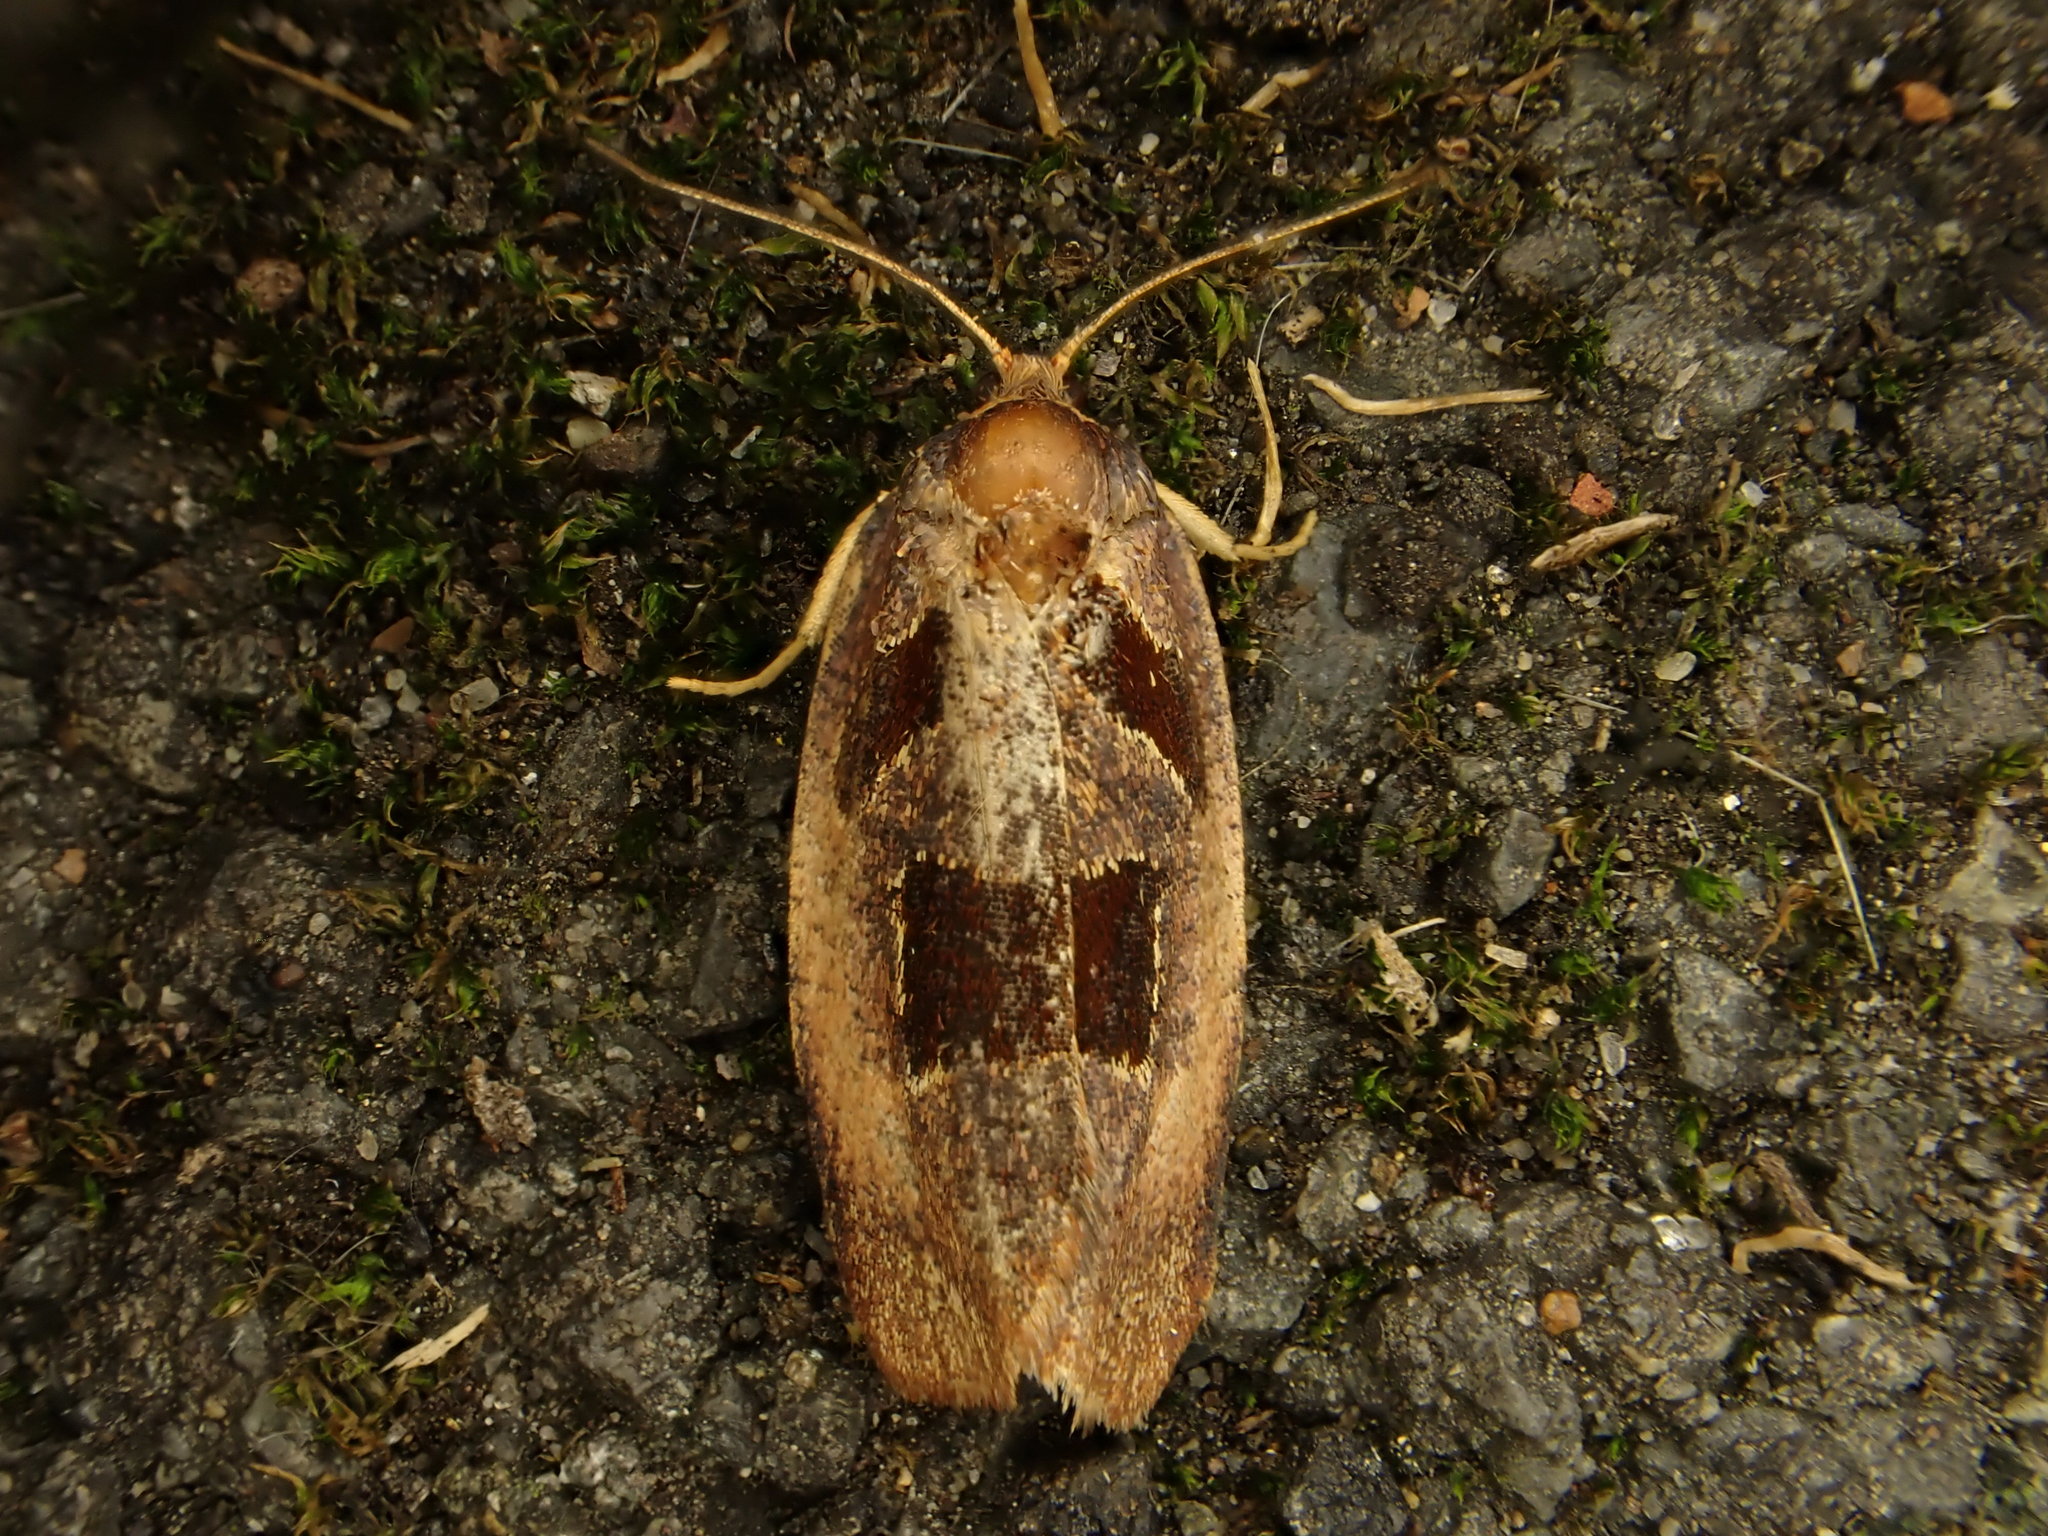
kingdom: Animalia
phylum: Arthropoda
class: Insecta
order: Lepidoptera
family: Tortricidae
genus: Ochetarcha
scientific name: Ochetarcha
